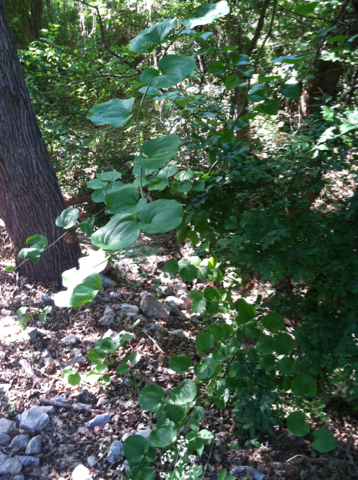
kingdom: Plantae
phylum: Tracheophyta
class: Liliopsida
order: Liliales
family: Smilacaceae
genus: Smilax
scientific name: Smilax tamnoides
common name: Hellfetter
